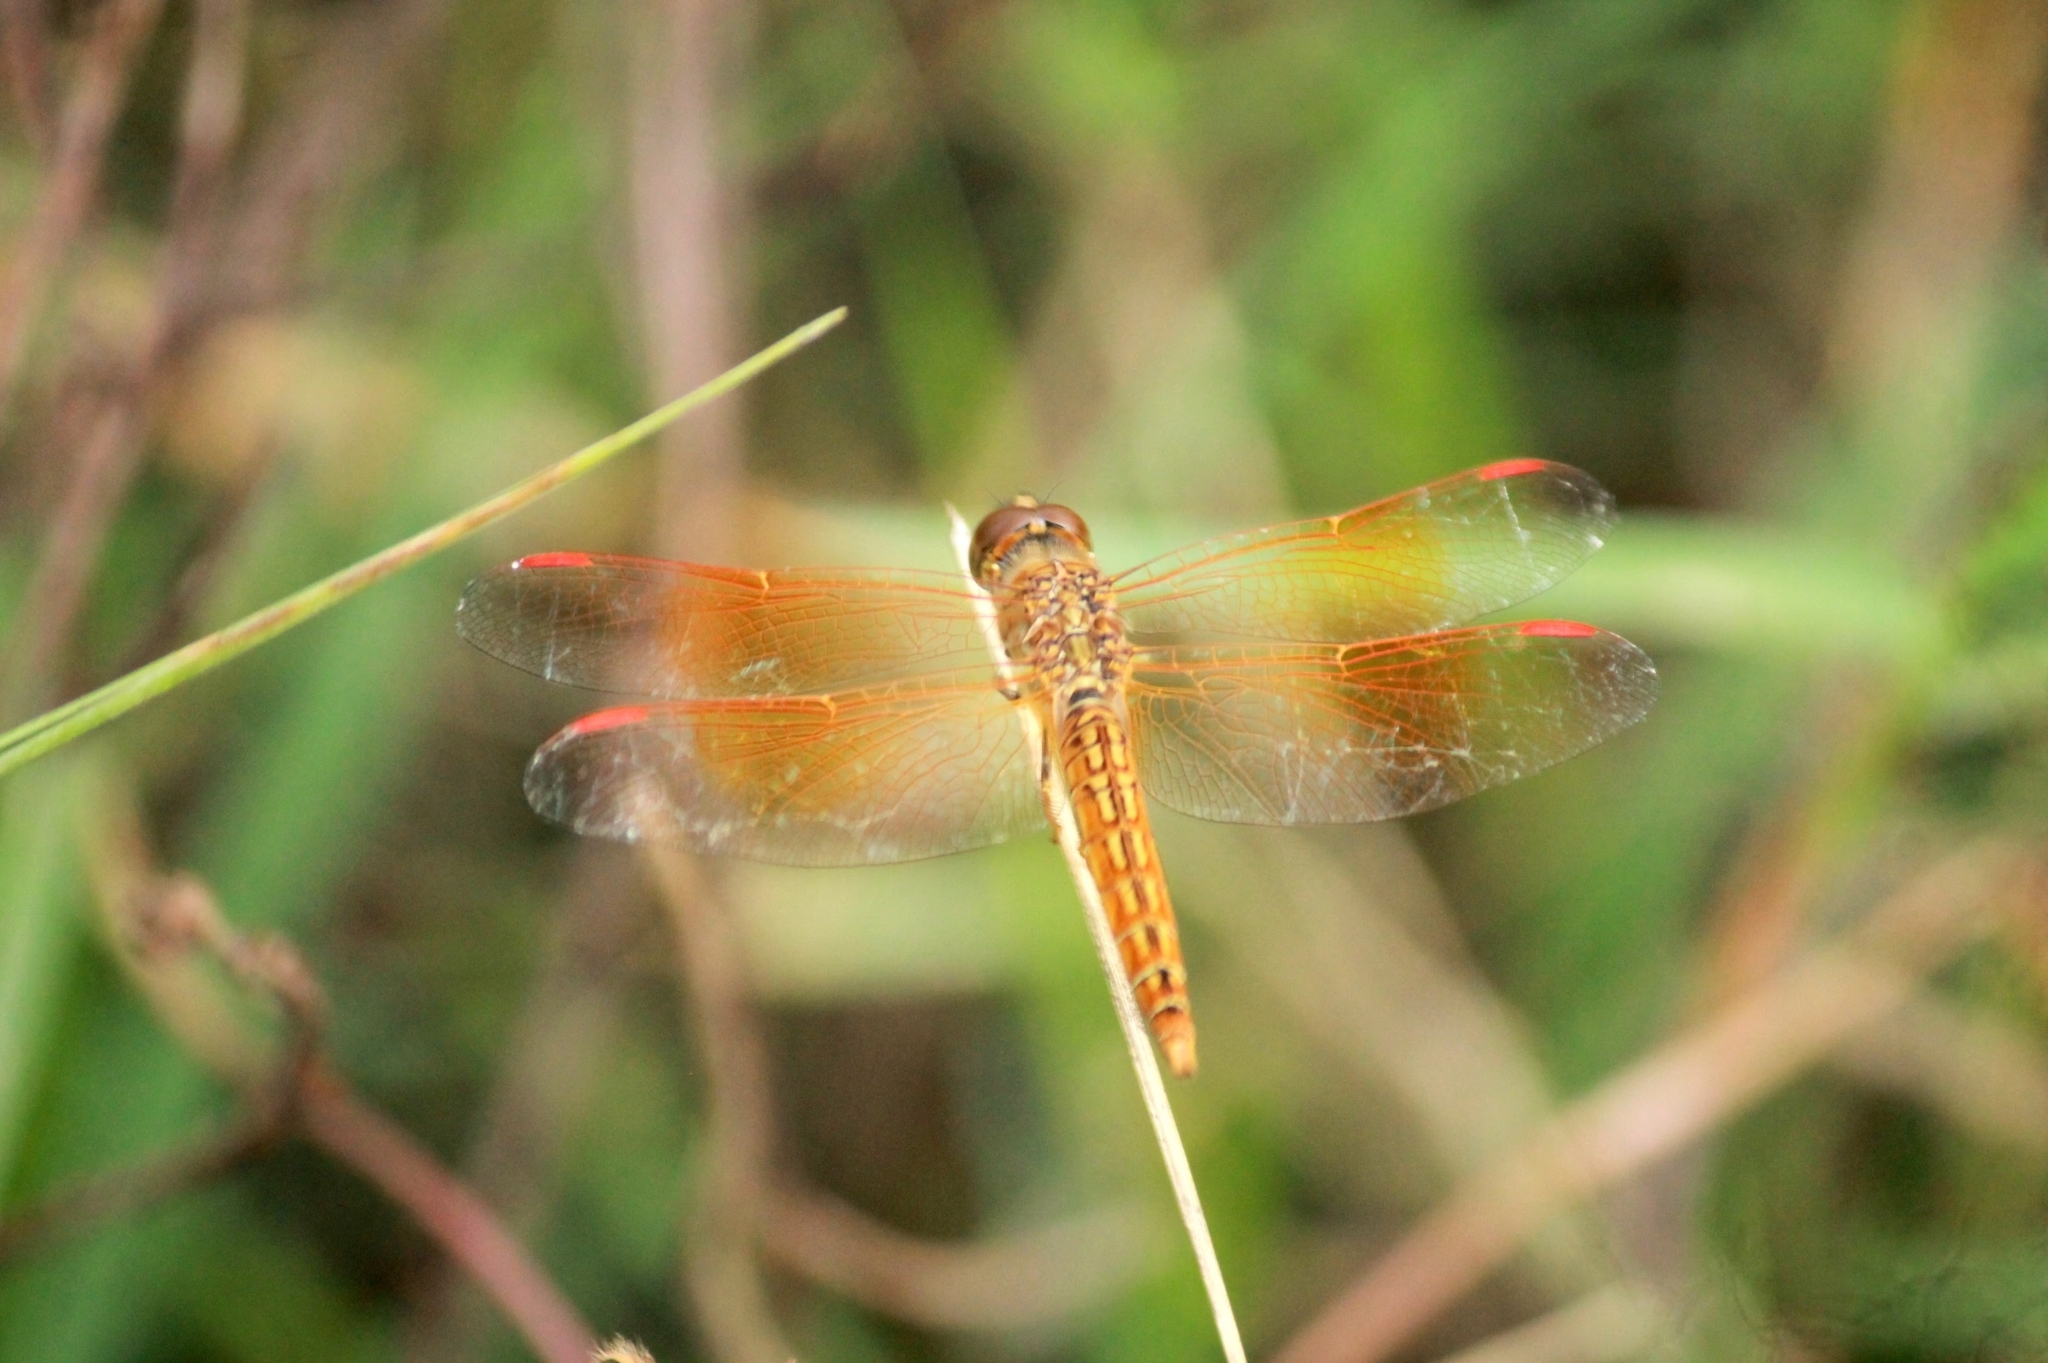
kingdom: Animalia
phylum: Arthropoda
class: Insecta
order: Odonata
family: Libellulidae
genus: Brachythemis
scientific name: Brachythemis contaminata
